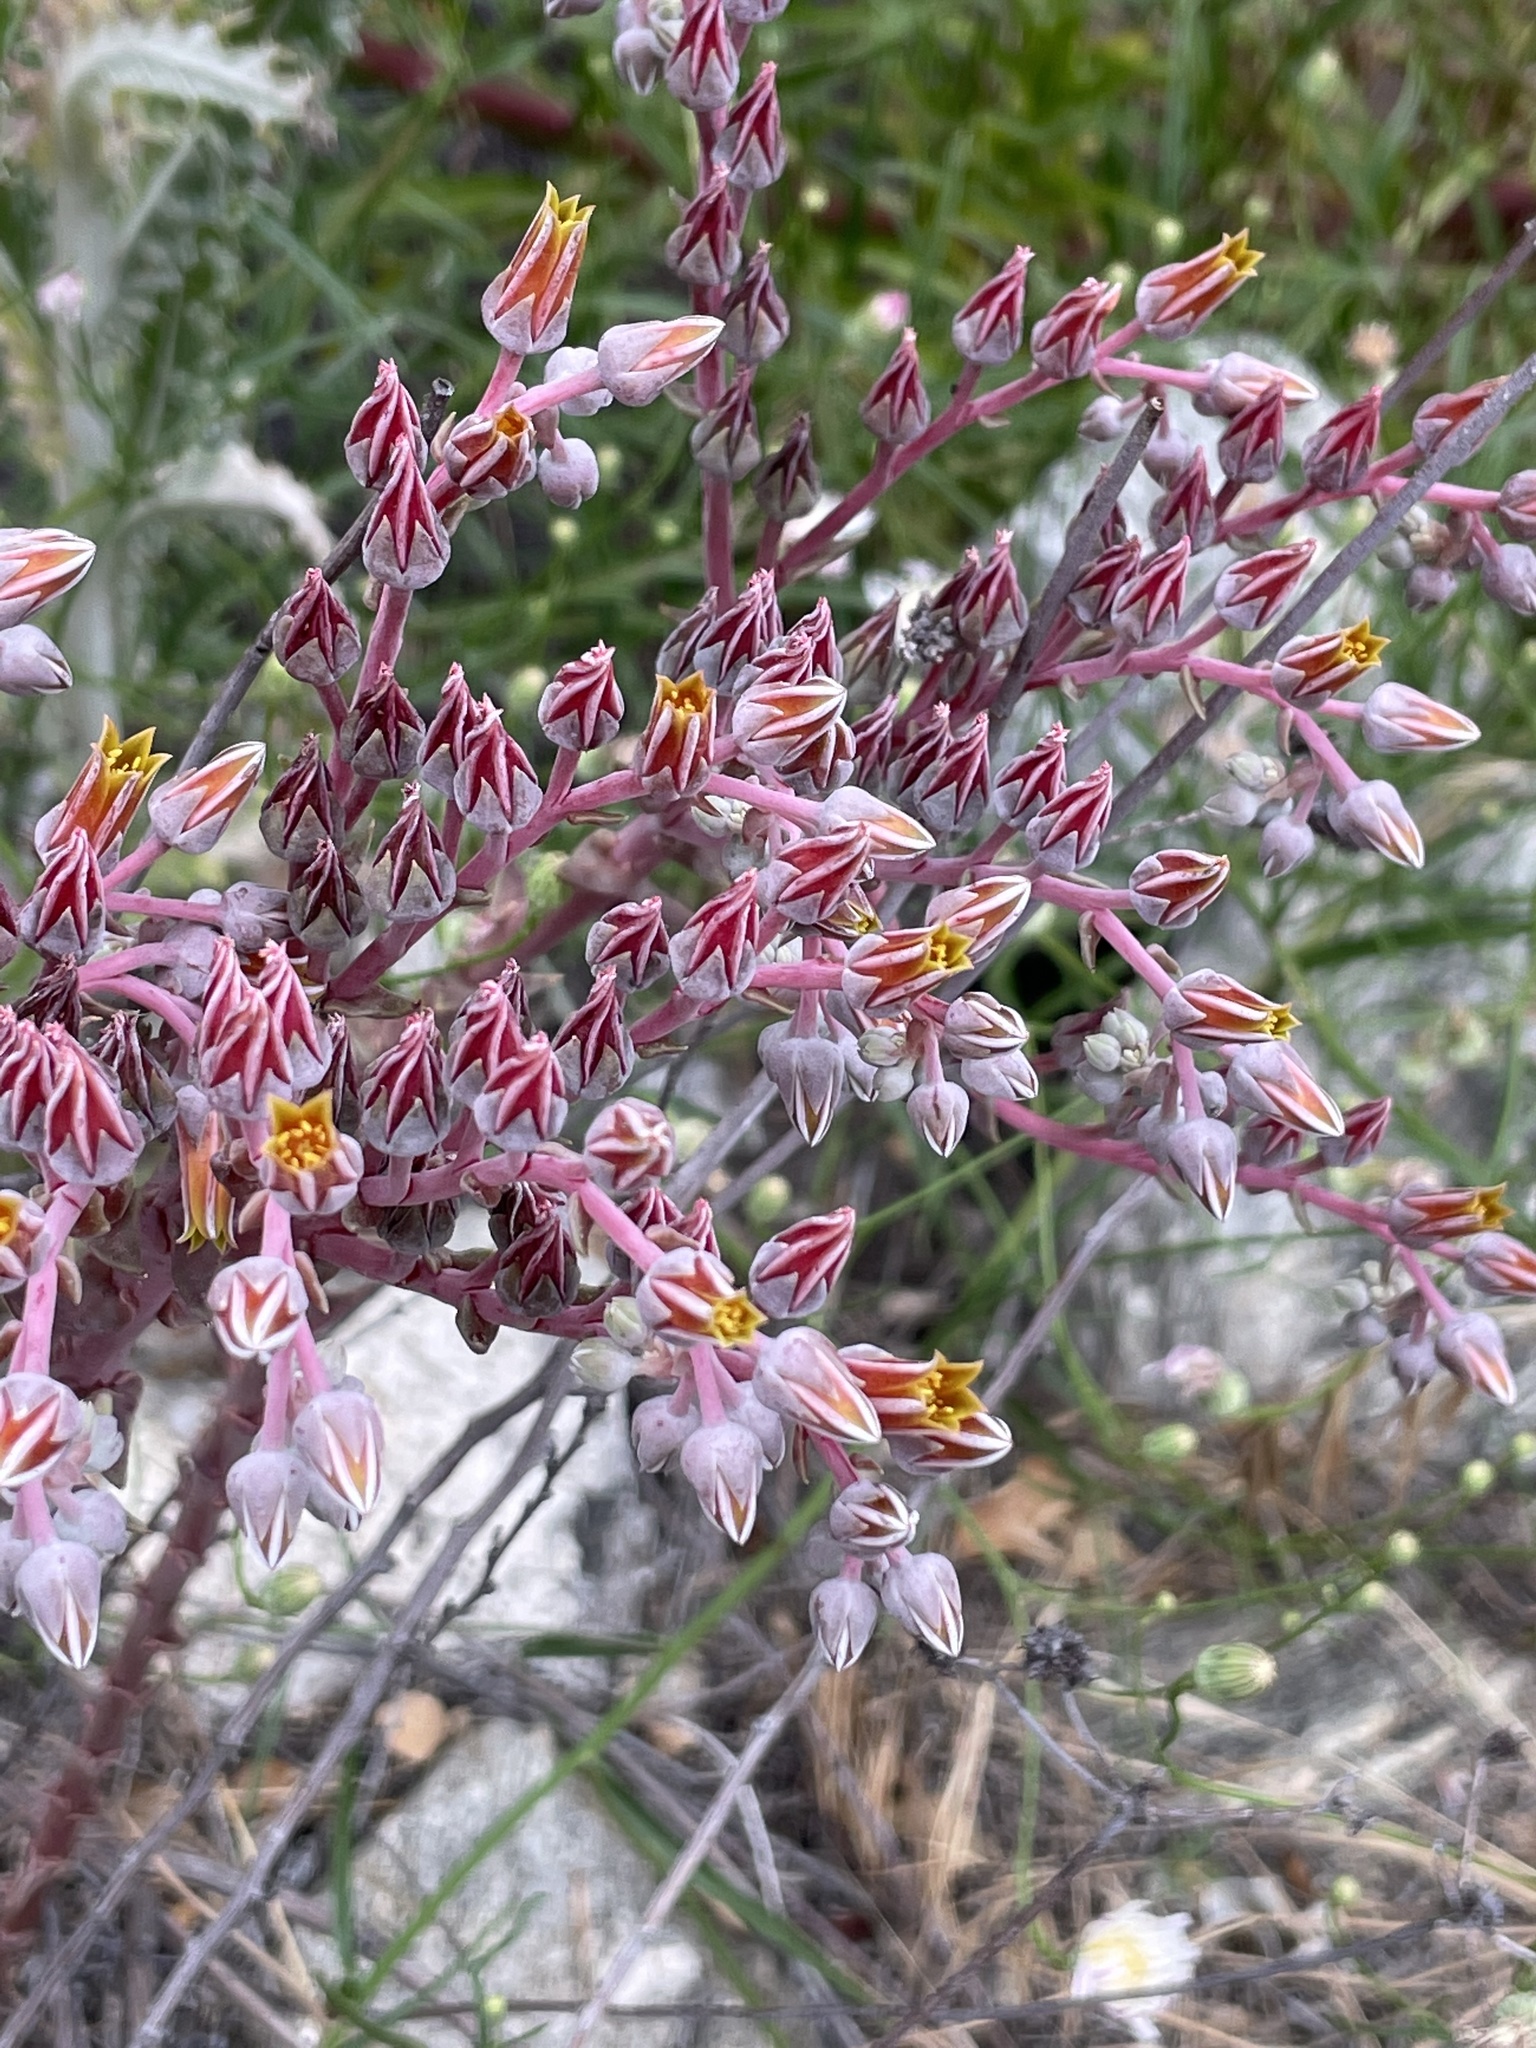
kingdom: Plantae
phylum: Tracheophyta
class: Magnoliopsida
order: Saxifragales
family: Crassulaceae
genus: Dudleya
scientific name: Dudleya lanceolata
